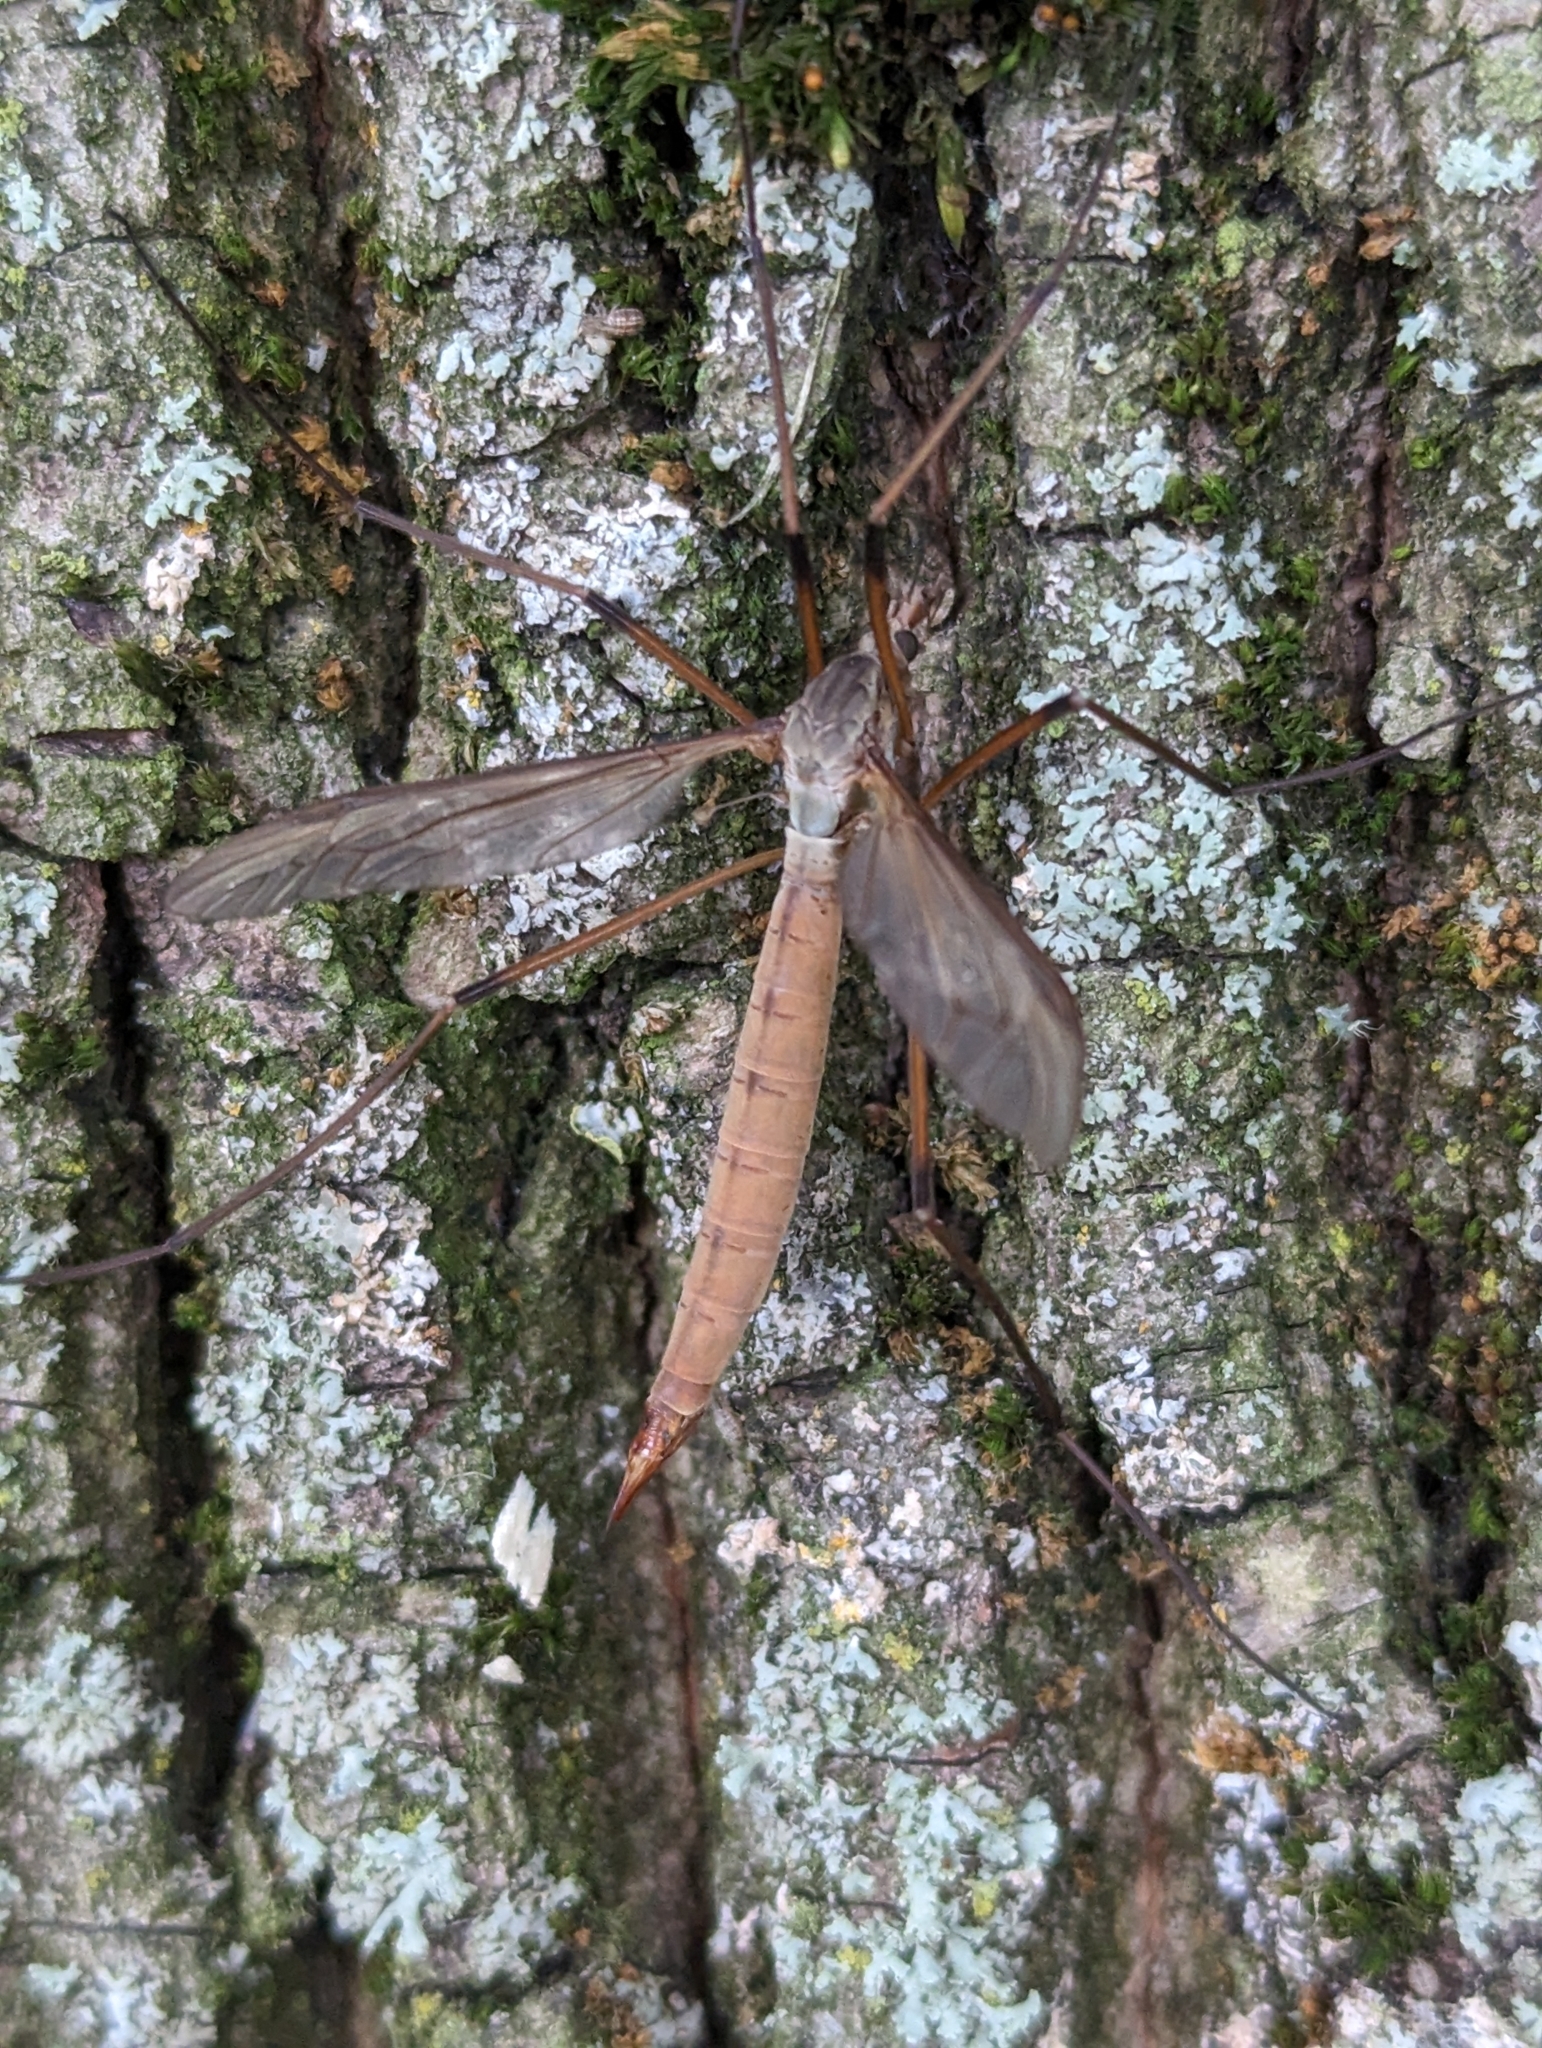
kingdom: Animalia
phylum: Arthropoda
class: Insecta
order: Diptera
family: Tipulidae
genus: Tipula
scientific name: Tipula paludosa
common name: European cranefly
